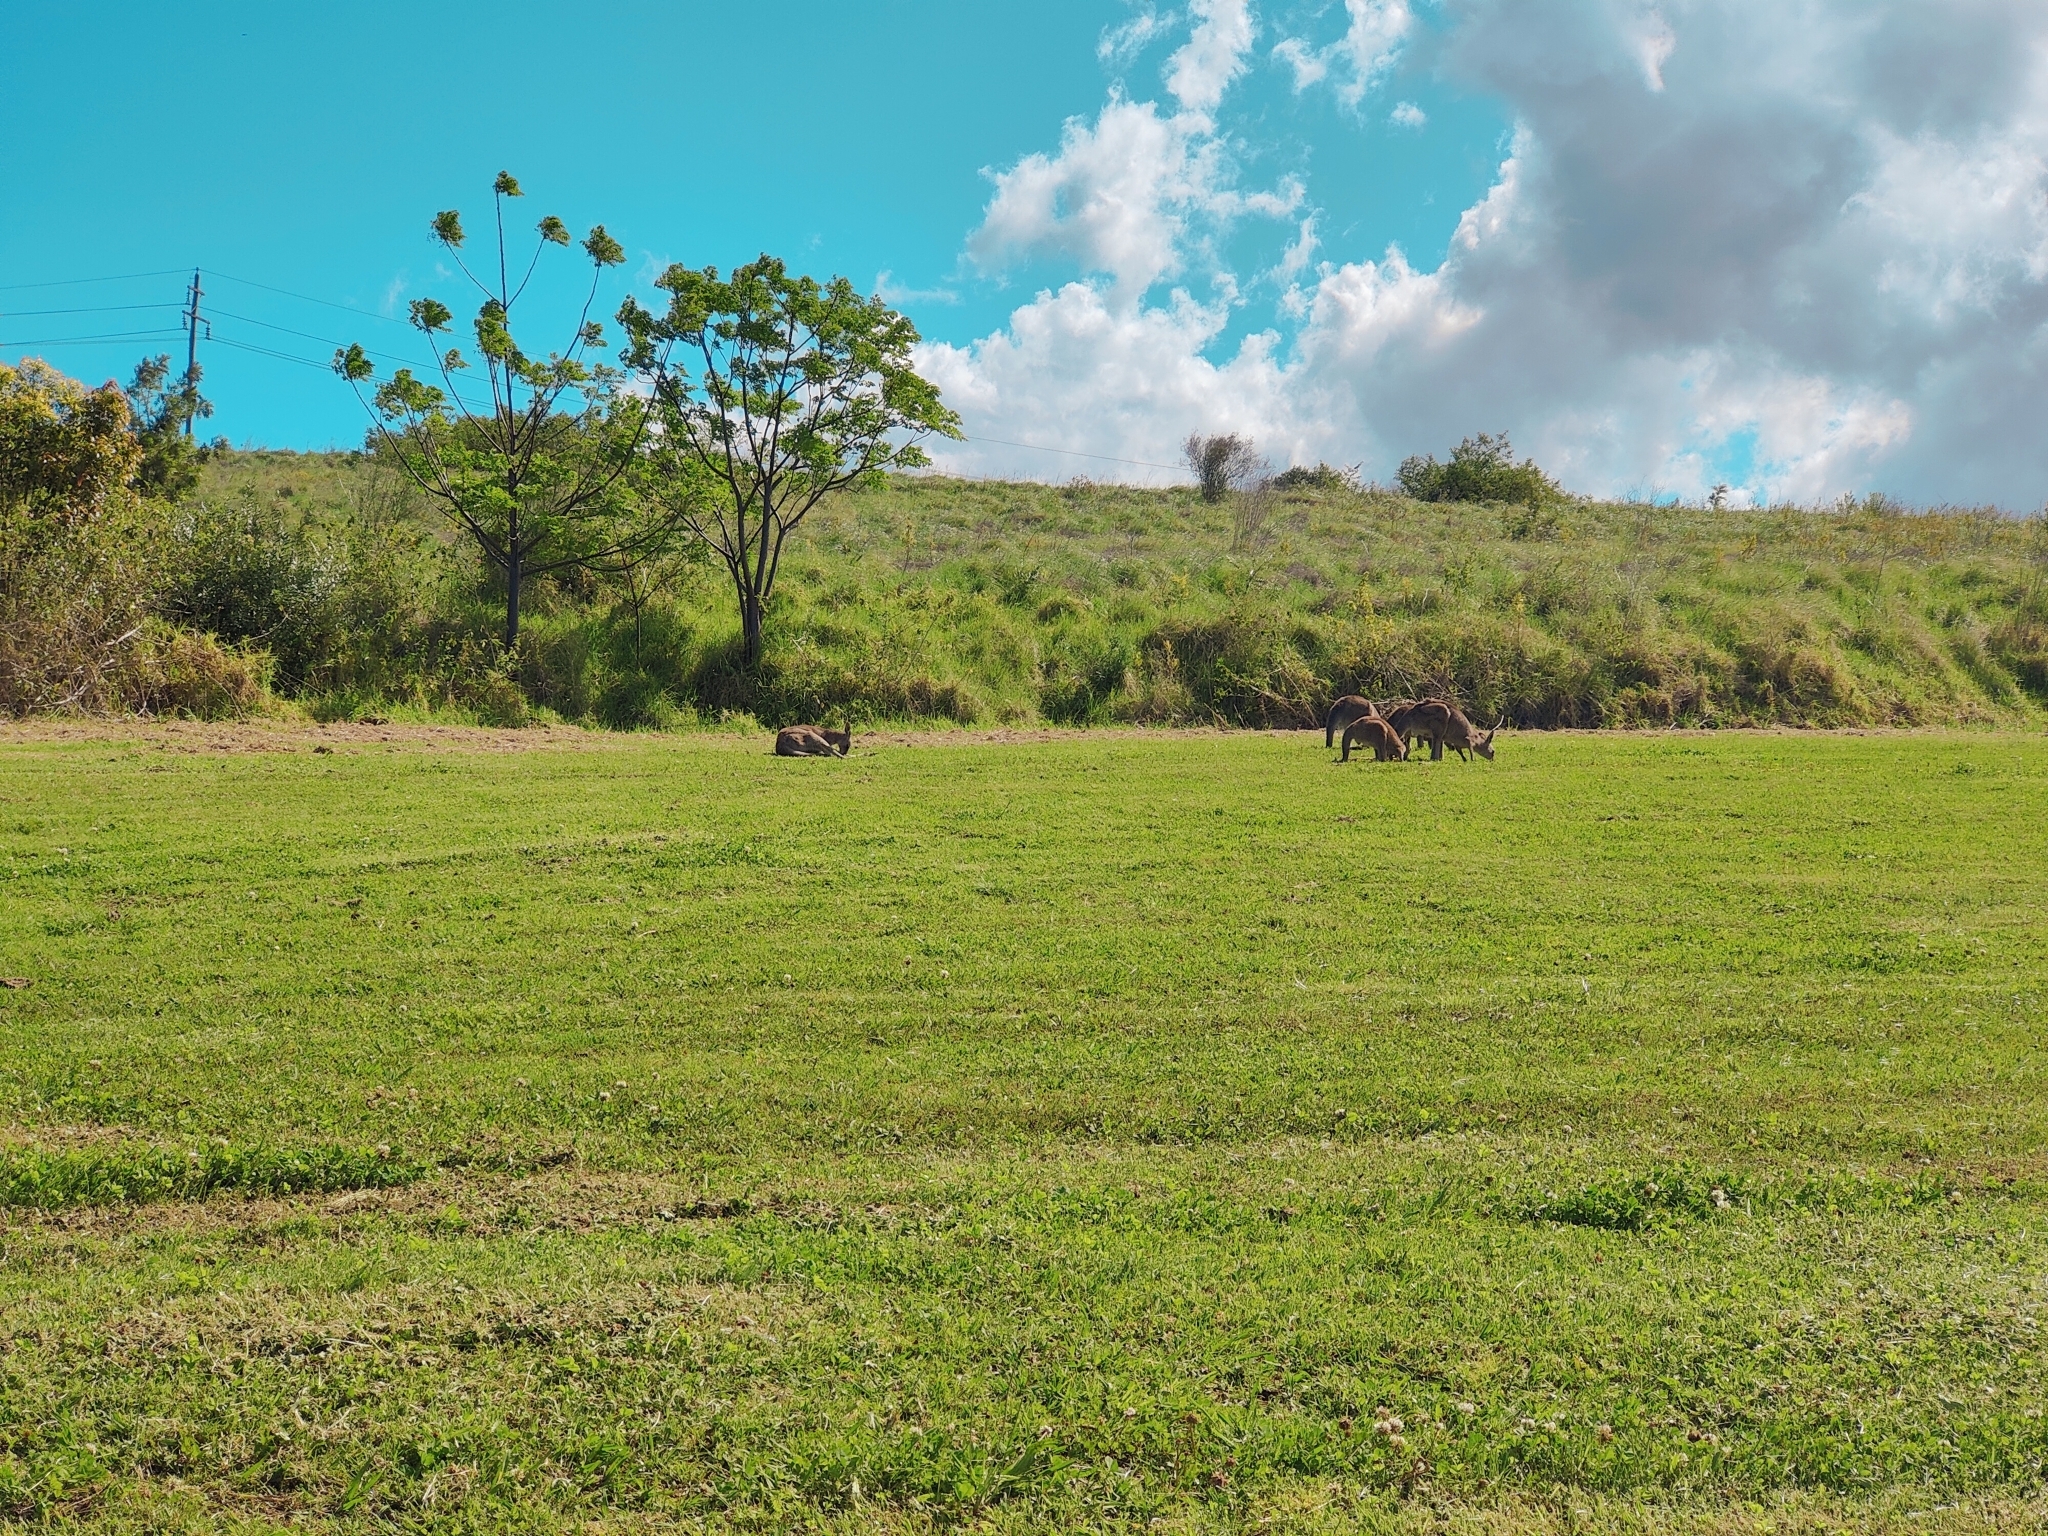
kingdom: Animalia
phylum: Chordata
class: Mammalia
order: Diprotodontia
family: Macropodidae
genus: Macropus
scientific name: Macropus giganteus
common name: Eastern grey kangaroo
